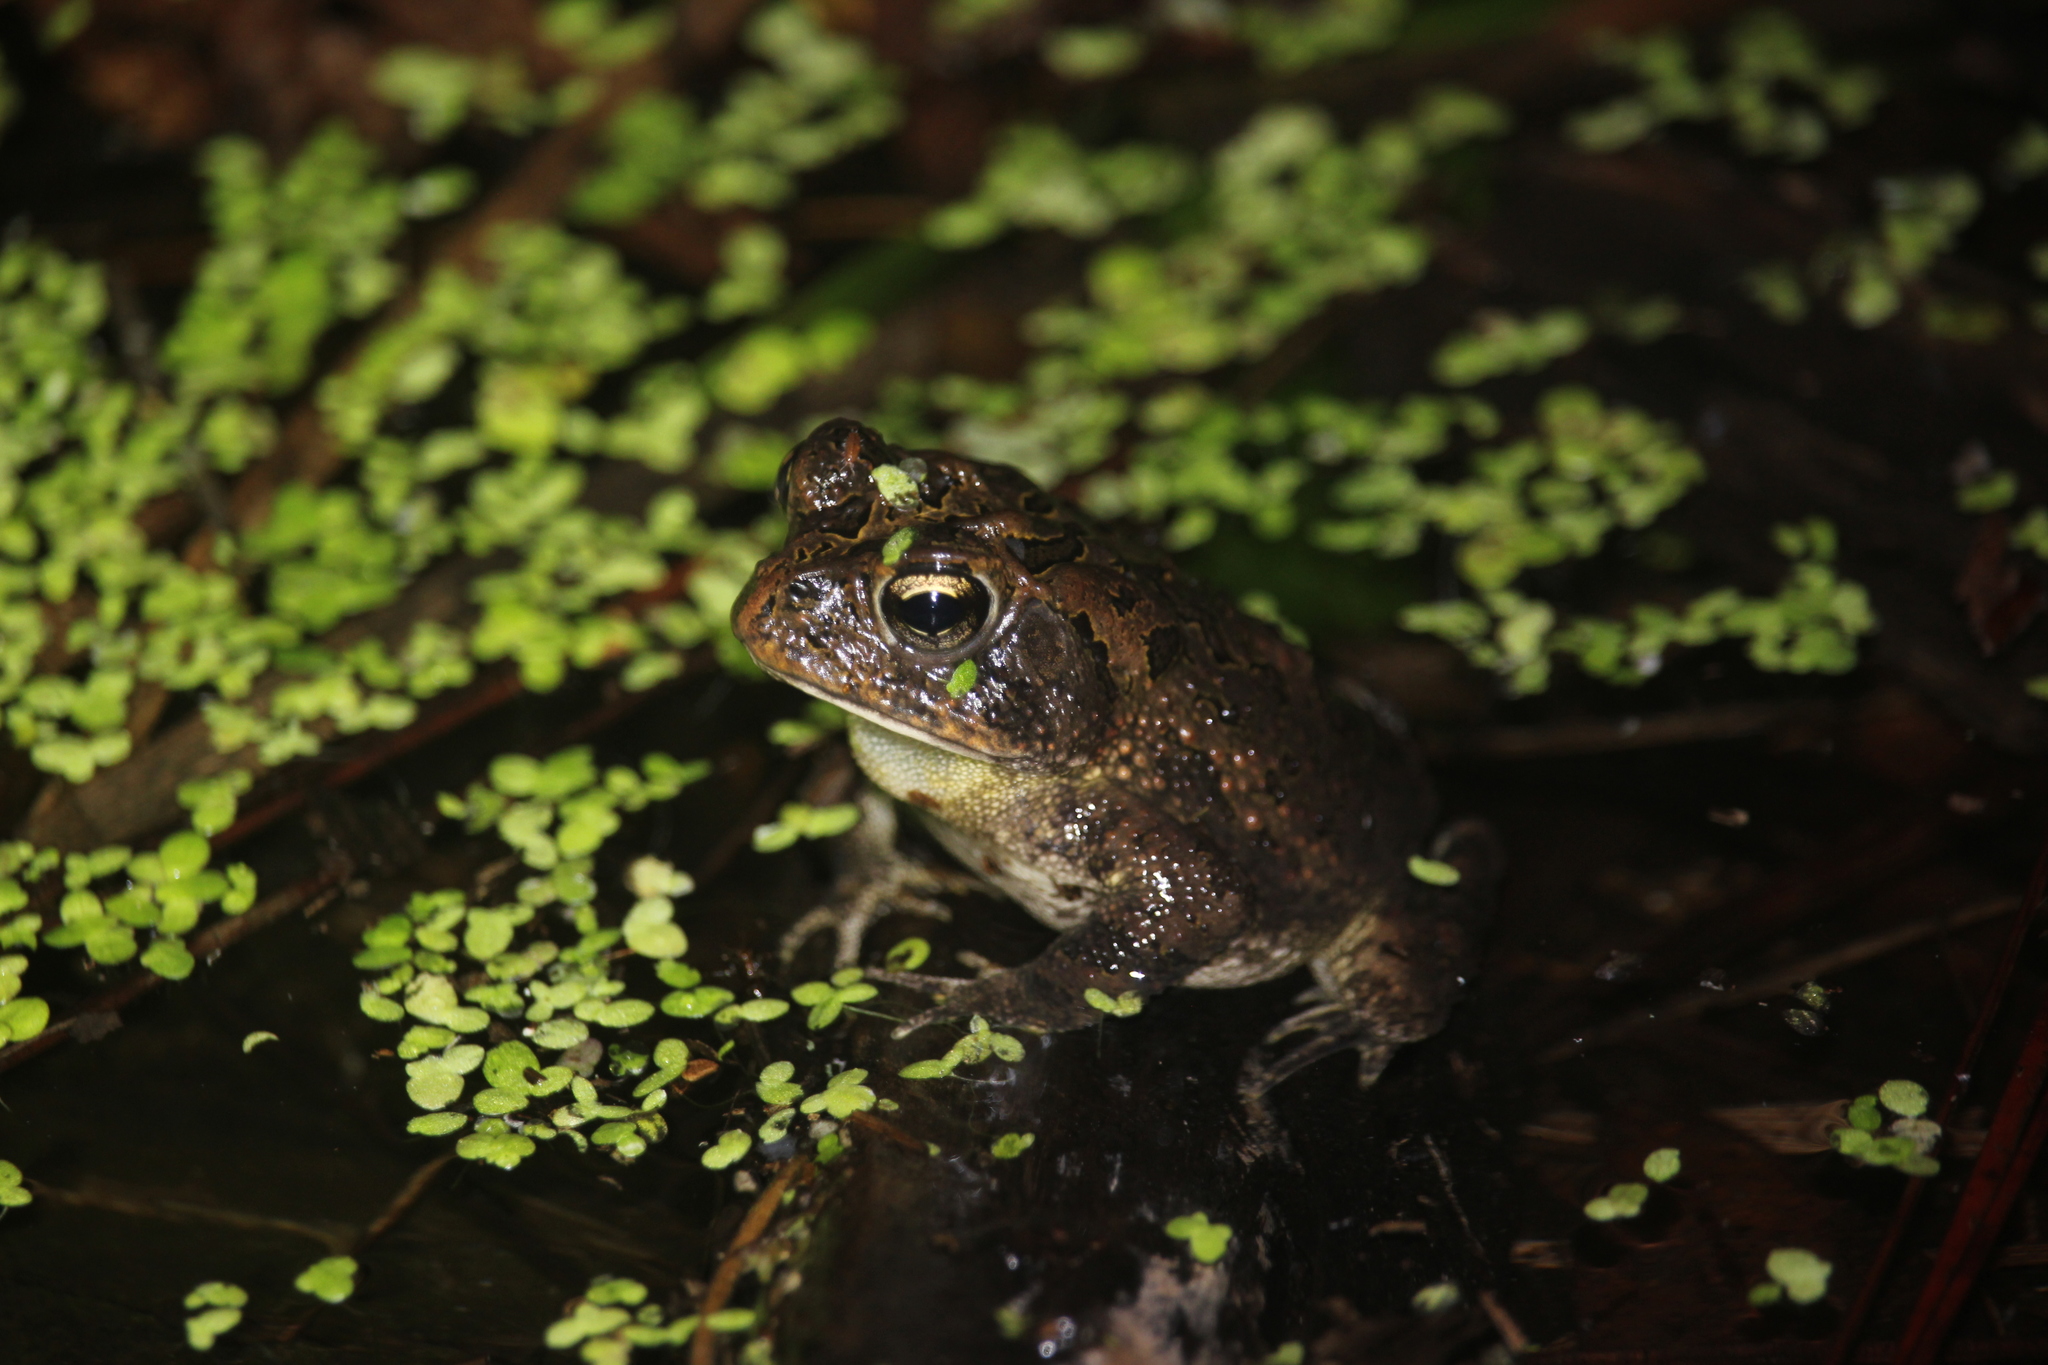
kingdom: Animalia
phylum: Chordata
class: Amphibia
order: Anura
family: Bufonidae
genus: Anaxyrus
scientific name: Anaxyrus terrestris
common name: Southern toad
